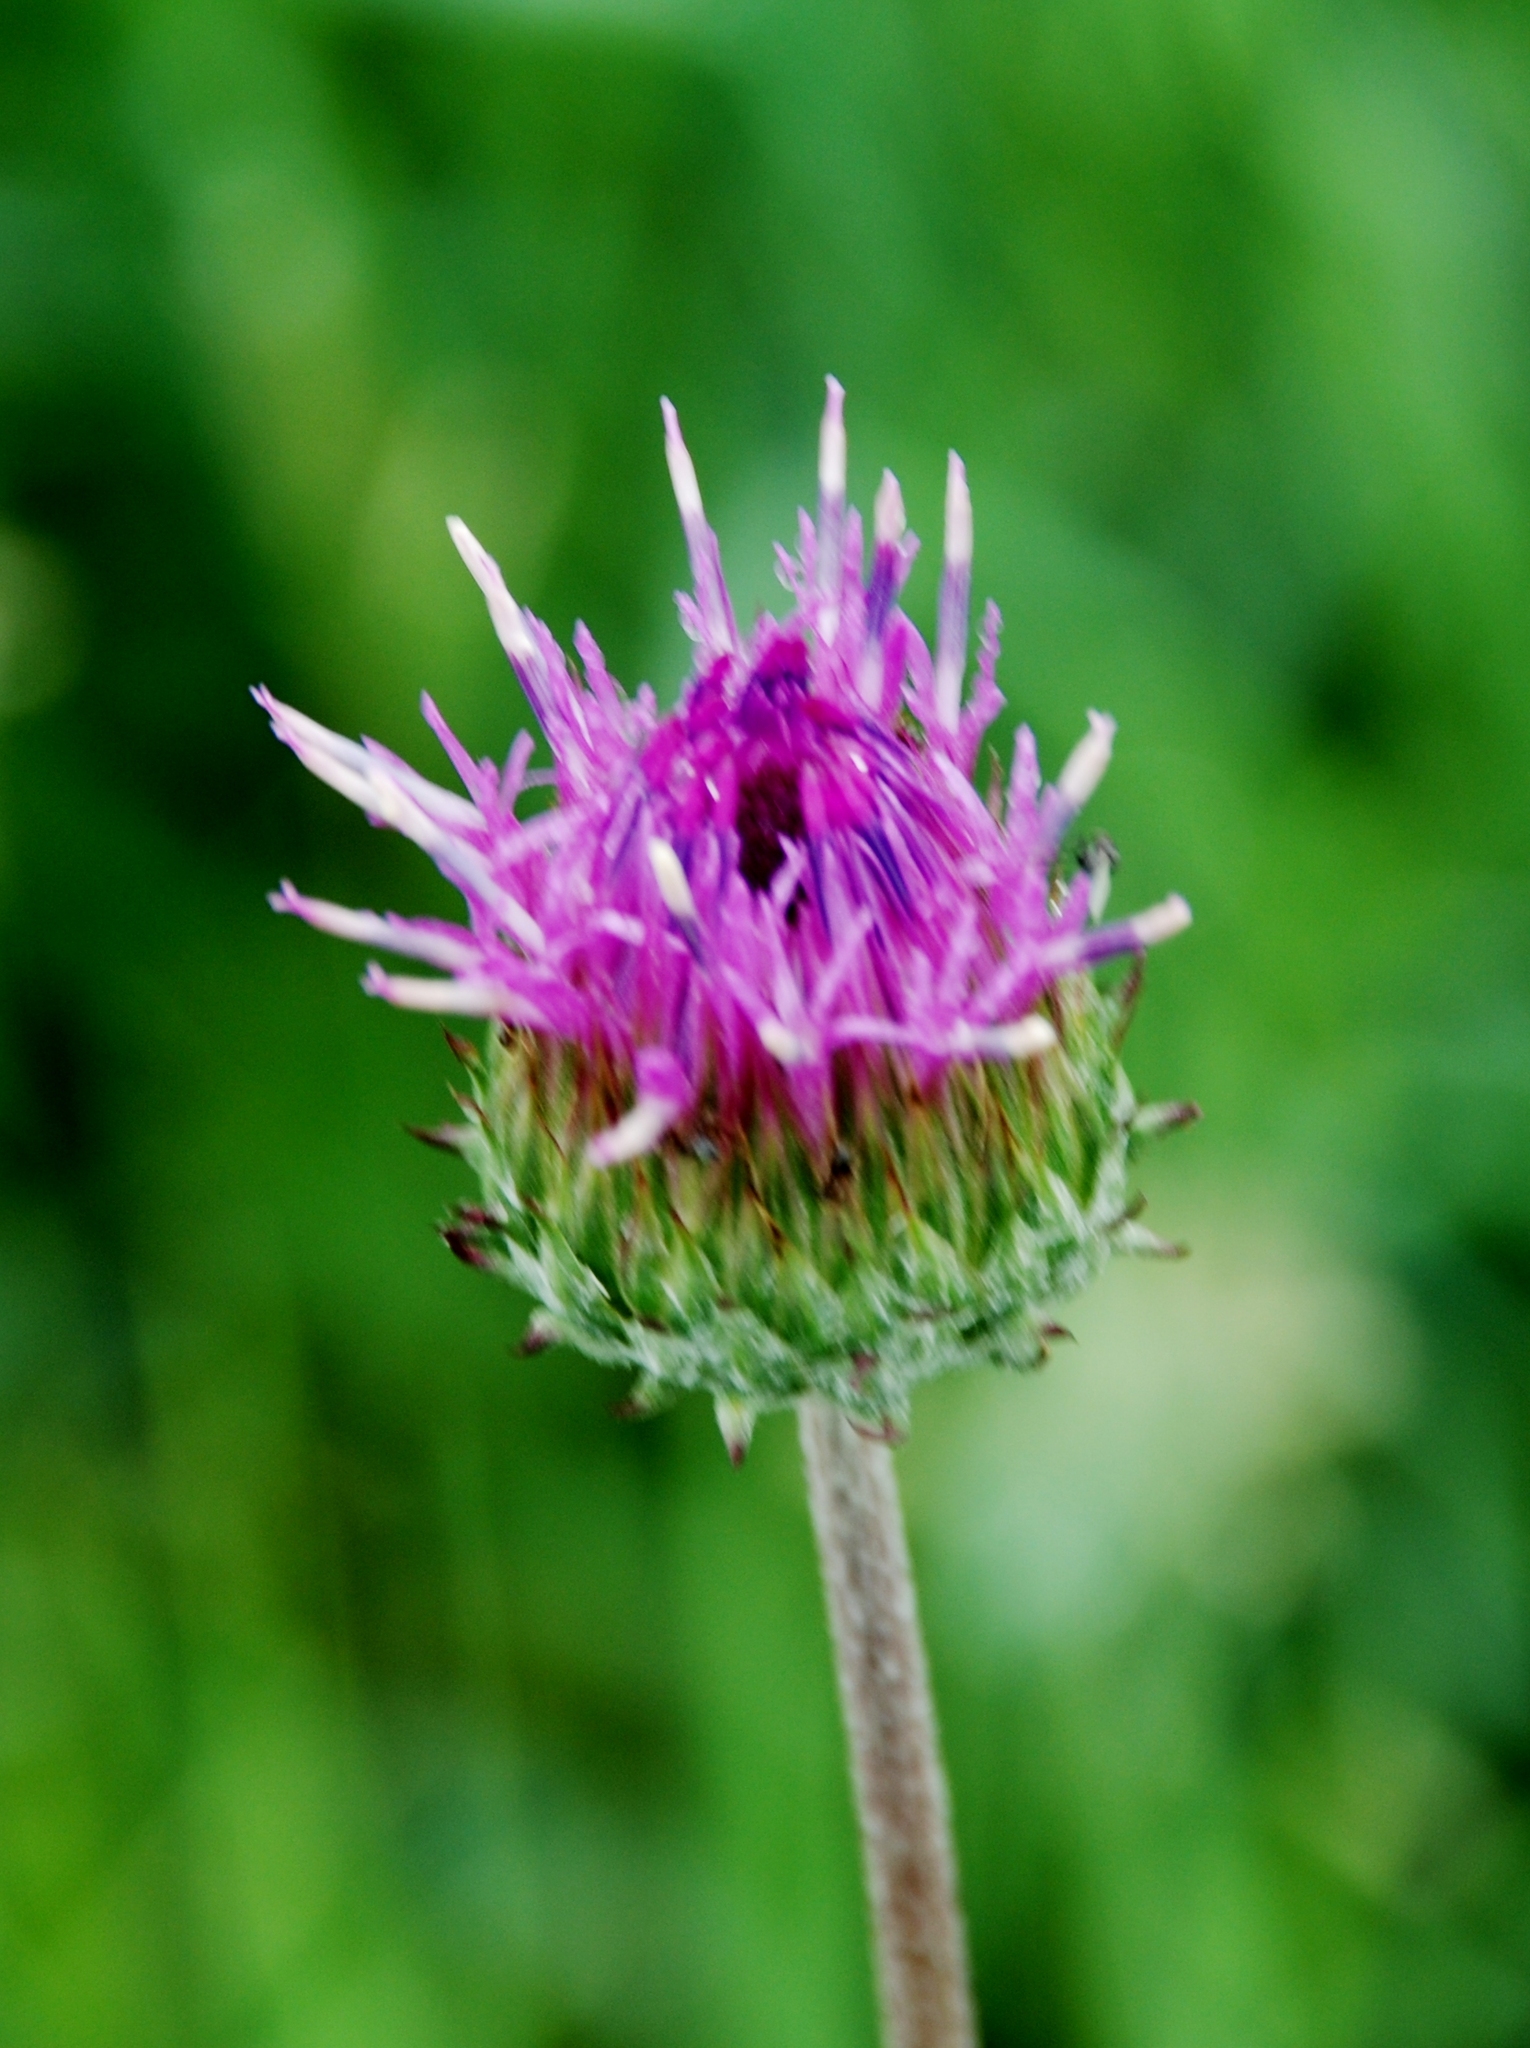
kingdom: Plantae
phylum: Tracheophyta
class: Magnoliopsida
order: Asterales
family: Asteraceae
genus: Jurinea
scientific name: Jurinea ledebourii
